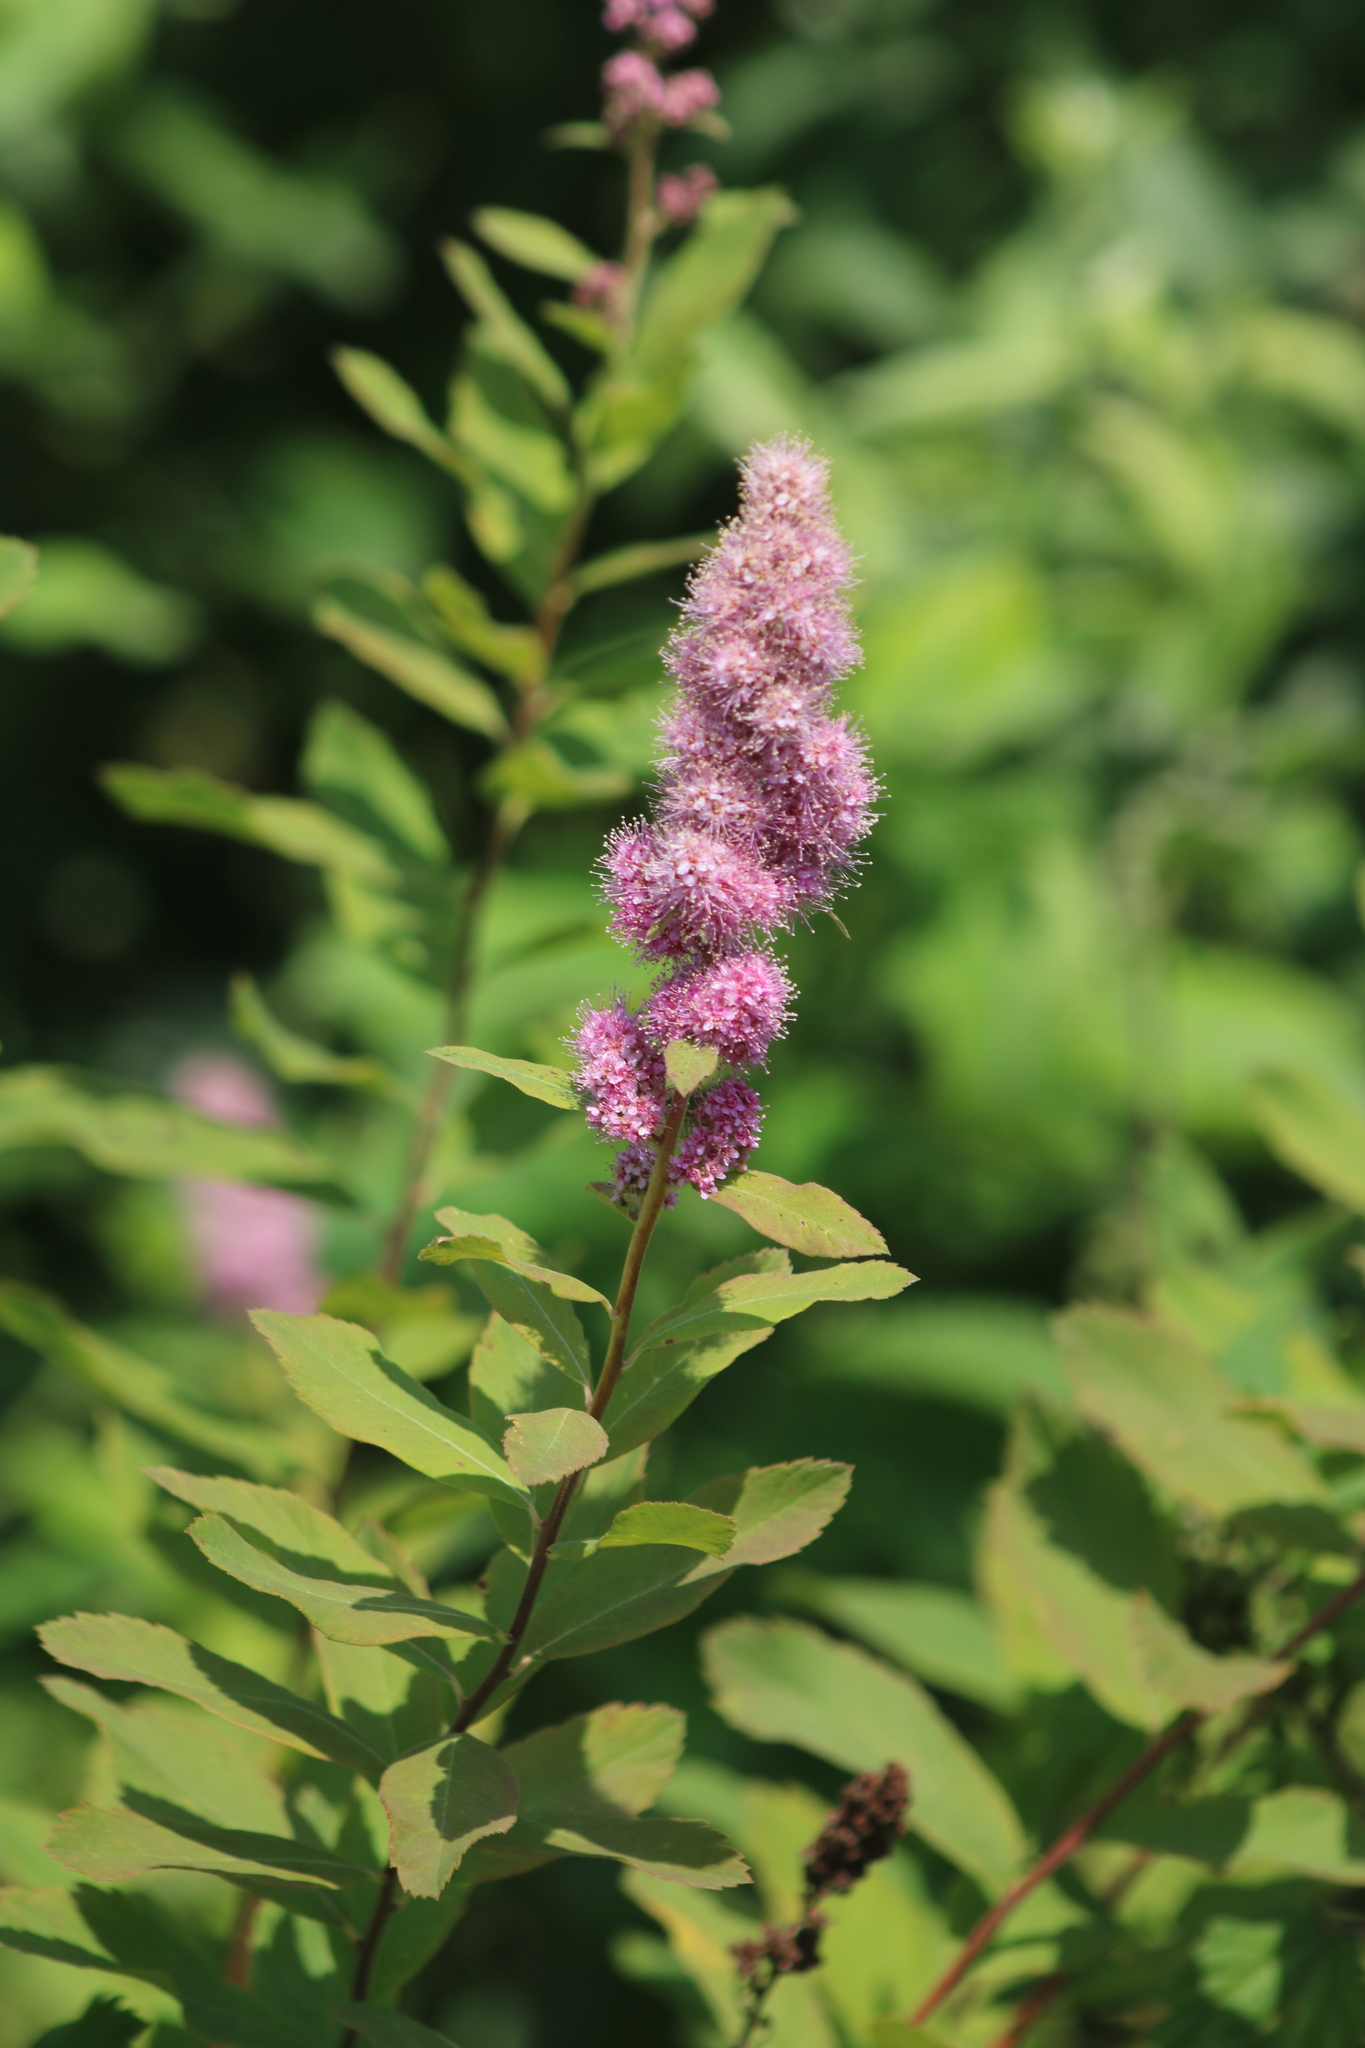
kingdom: Plantae
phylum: Tracheophyta
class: Magnoliopsida
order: Rosales
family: Rosaceae
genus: Spiraea
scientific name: Spiraea douglasii
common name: Steeplebush
